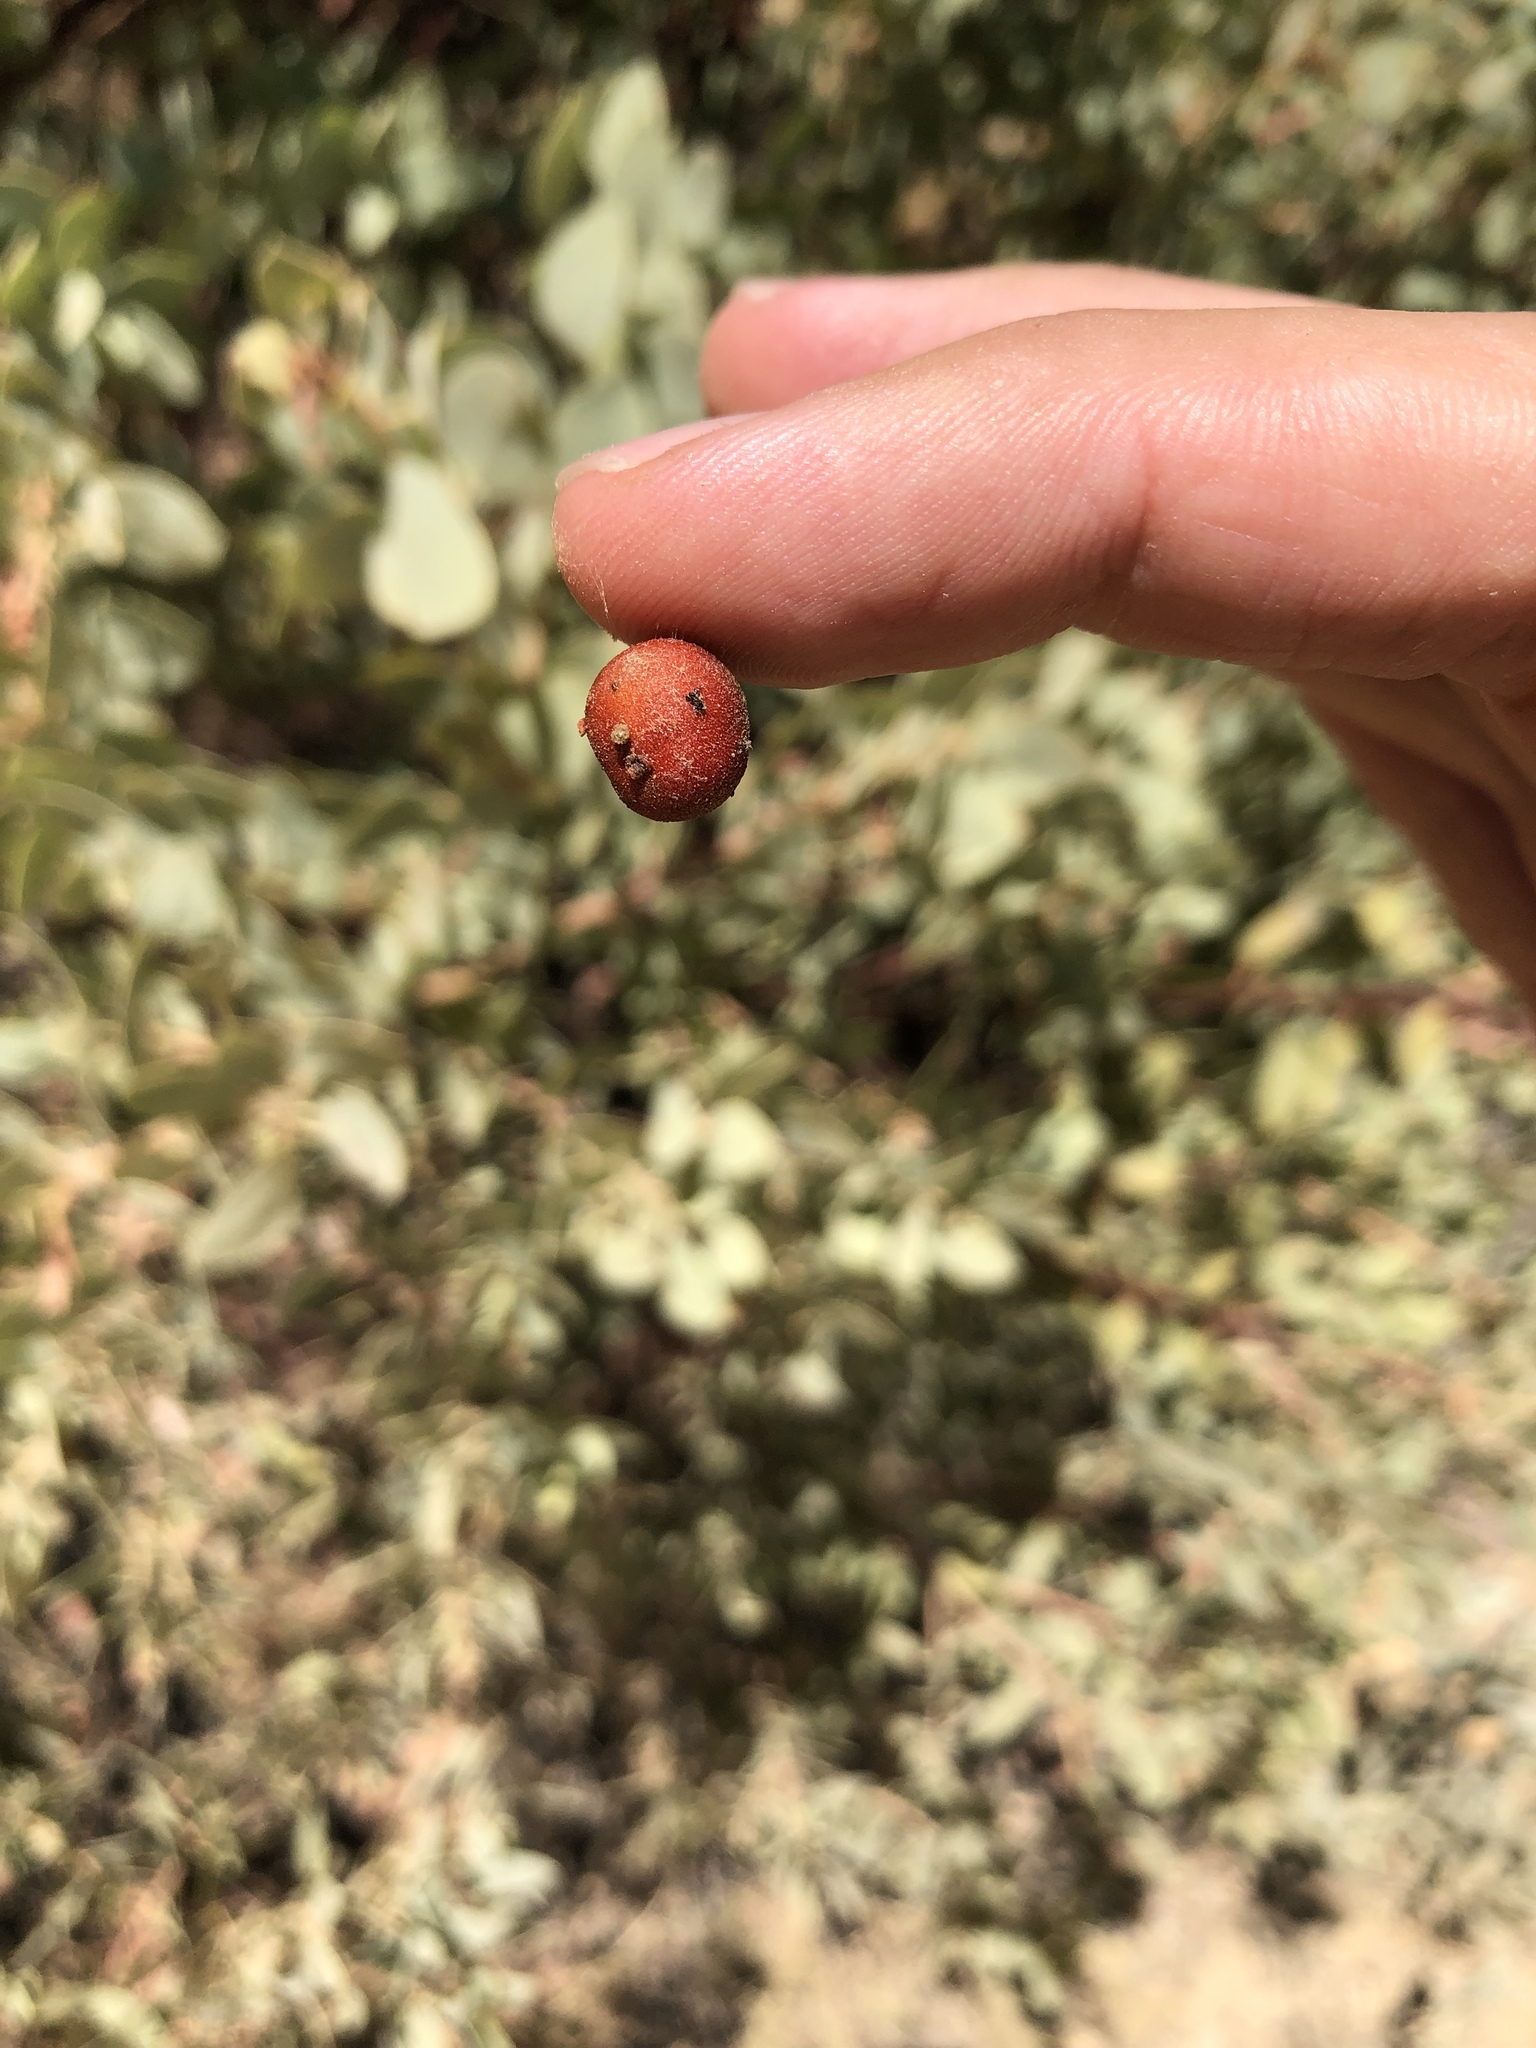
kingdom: Plantae
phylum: Tracheophyta
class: Magnoliopsida
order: Ericales
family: Ericaceae
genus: Arctostaphylos
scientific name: Arctostaphylos glauca
